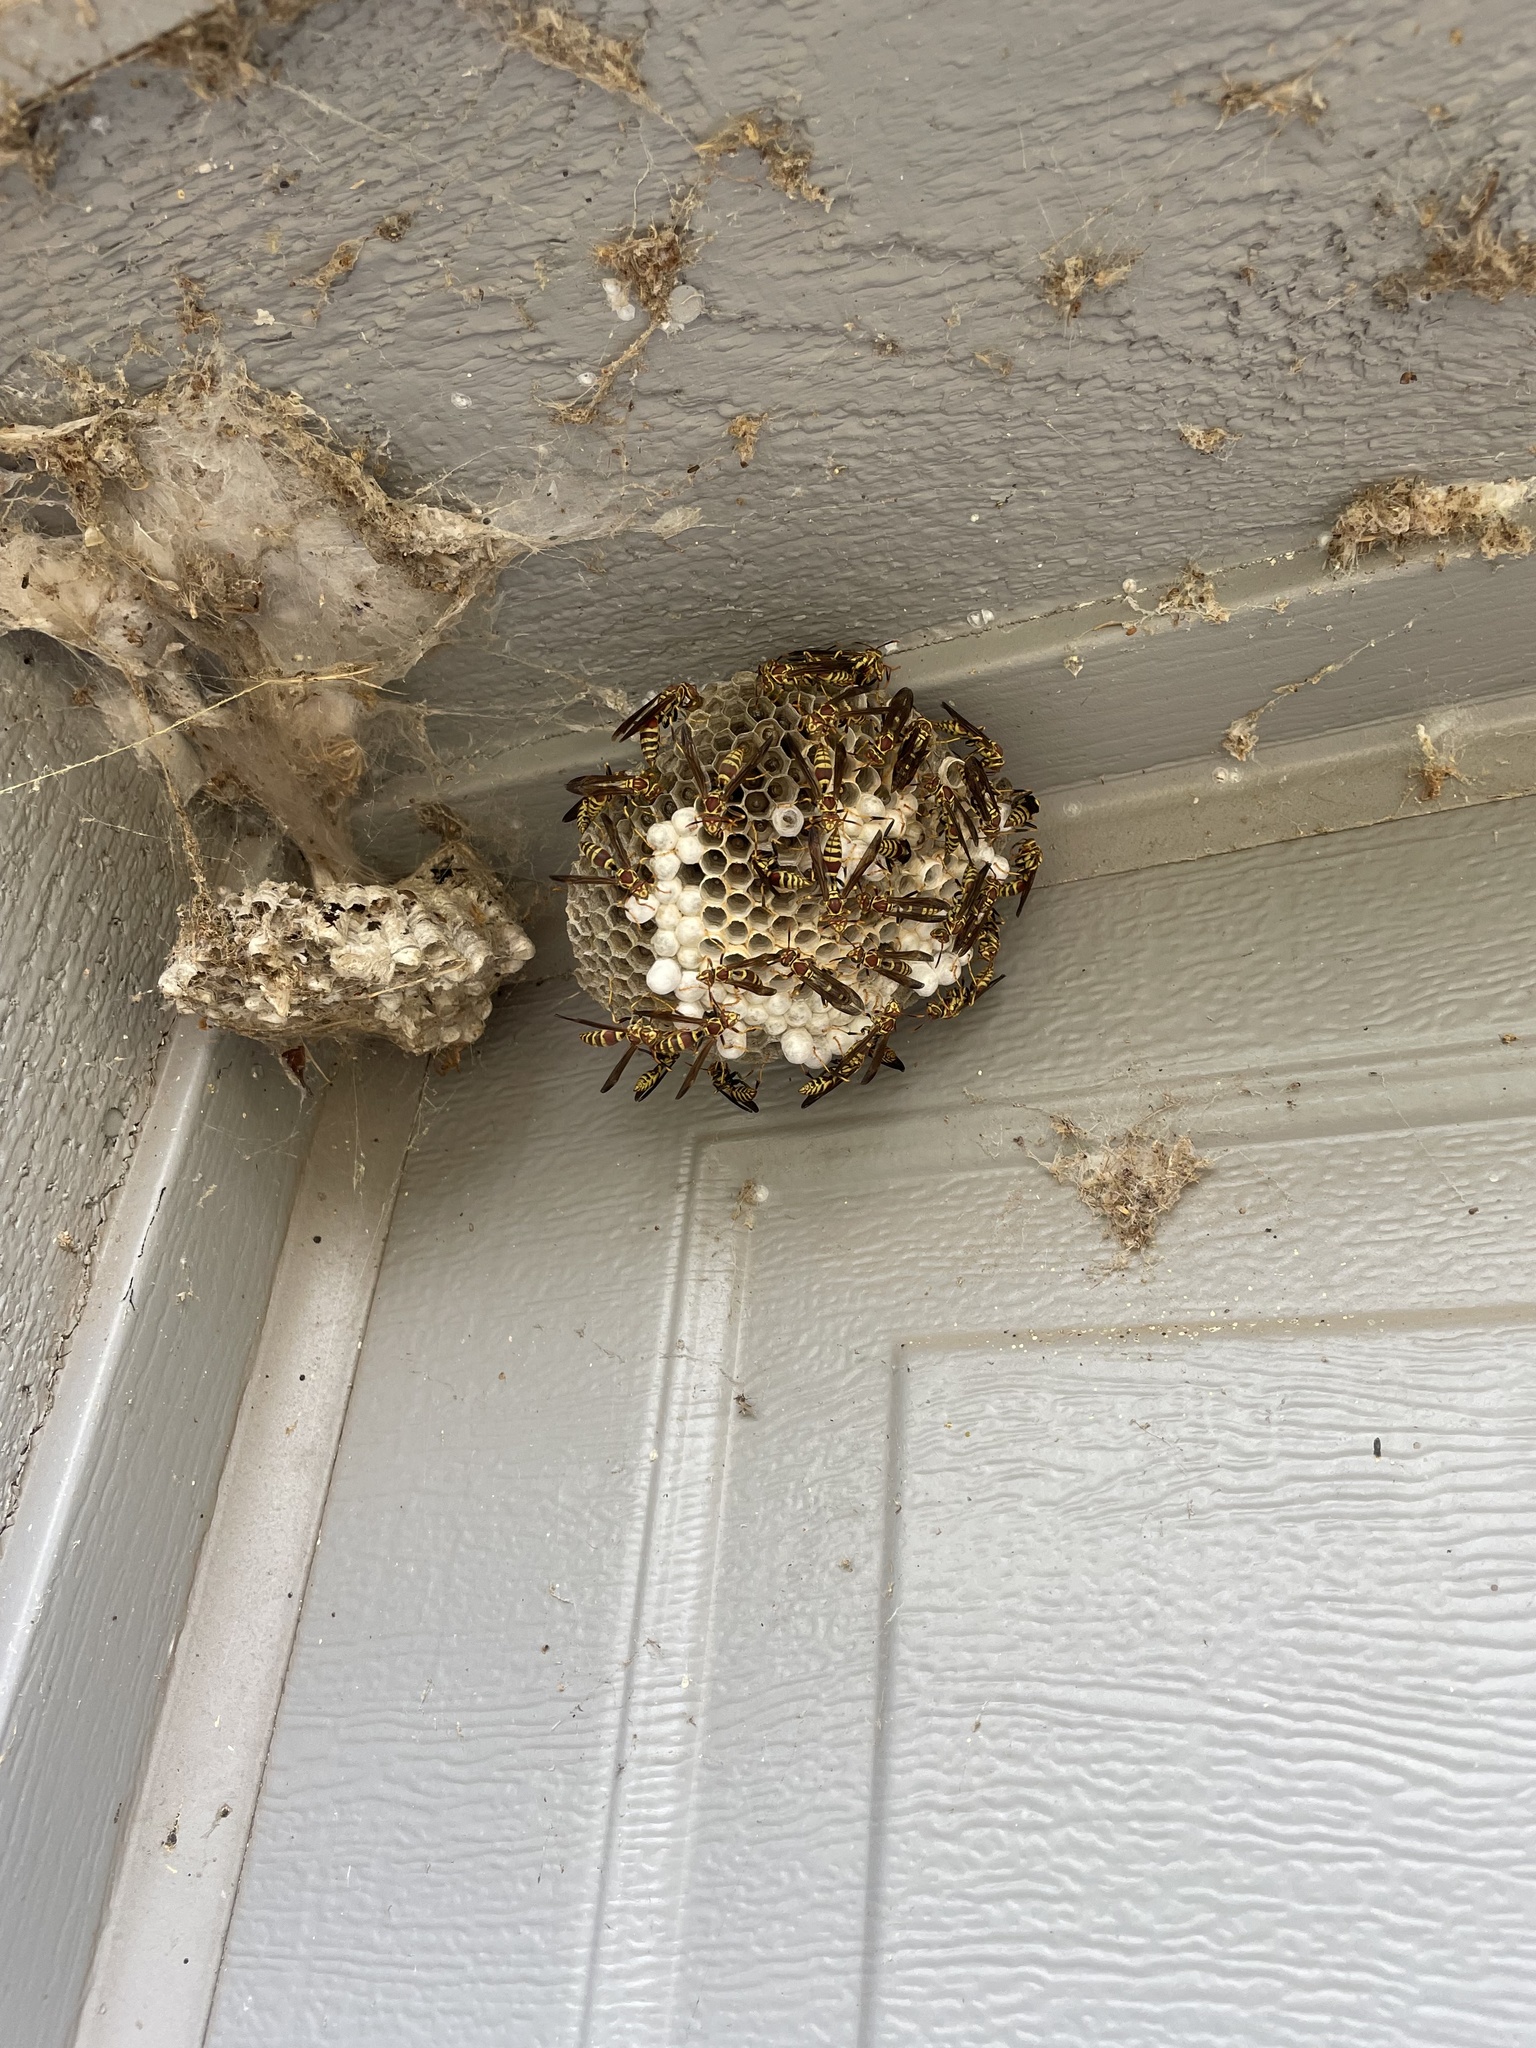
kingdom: Animalia
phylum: Arthropoda
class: Insecta
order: Hymenoptera
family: Eumenidae
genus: Polistes
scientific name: Polistes exclamans
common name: Paper wasp
